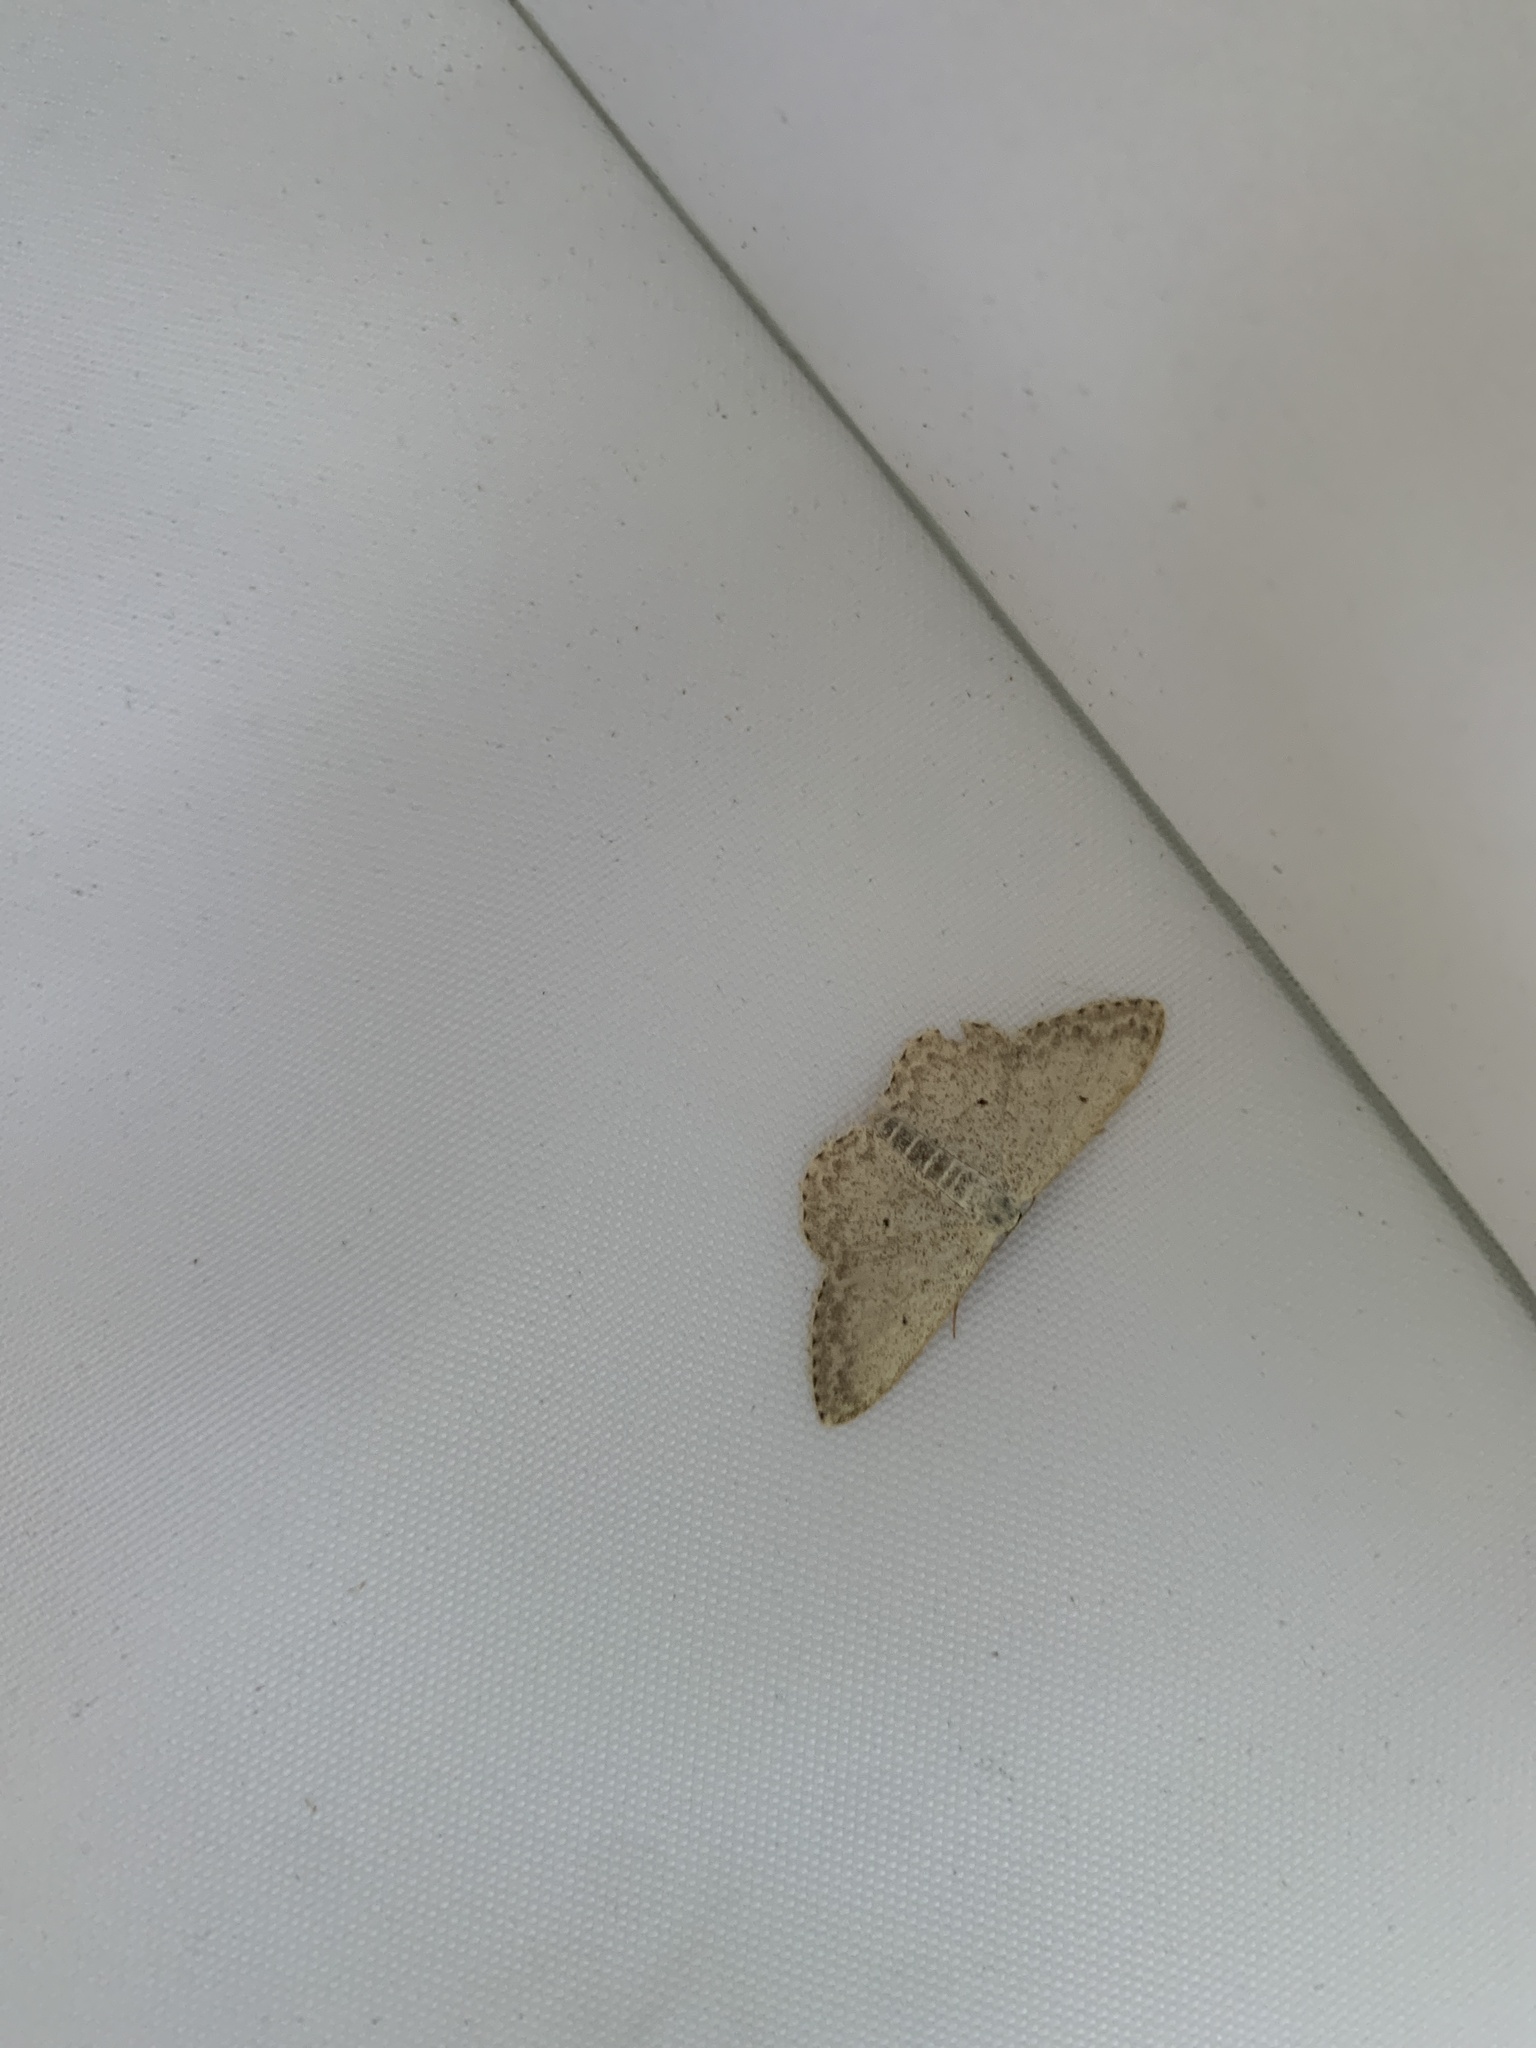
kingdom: Animalia
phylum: Arthropoda
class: Insecta
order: Lepidoptera
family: Geometridae
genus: Idaea
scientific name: Idaea seriata
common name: Small dusty wave
